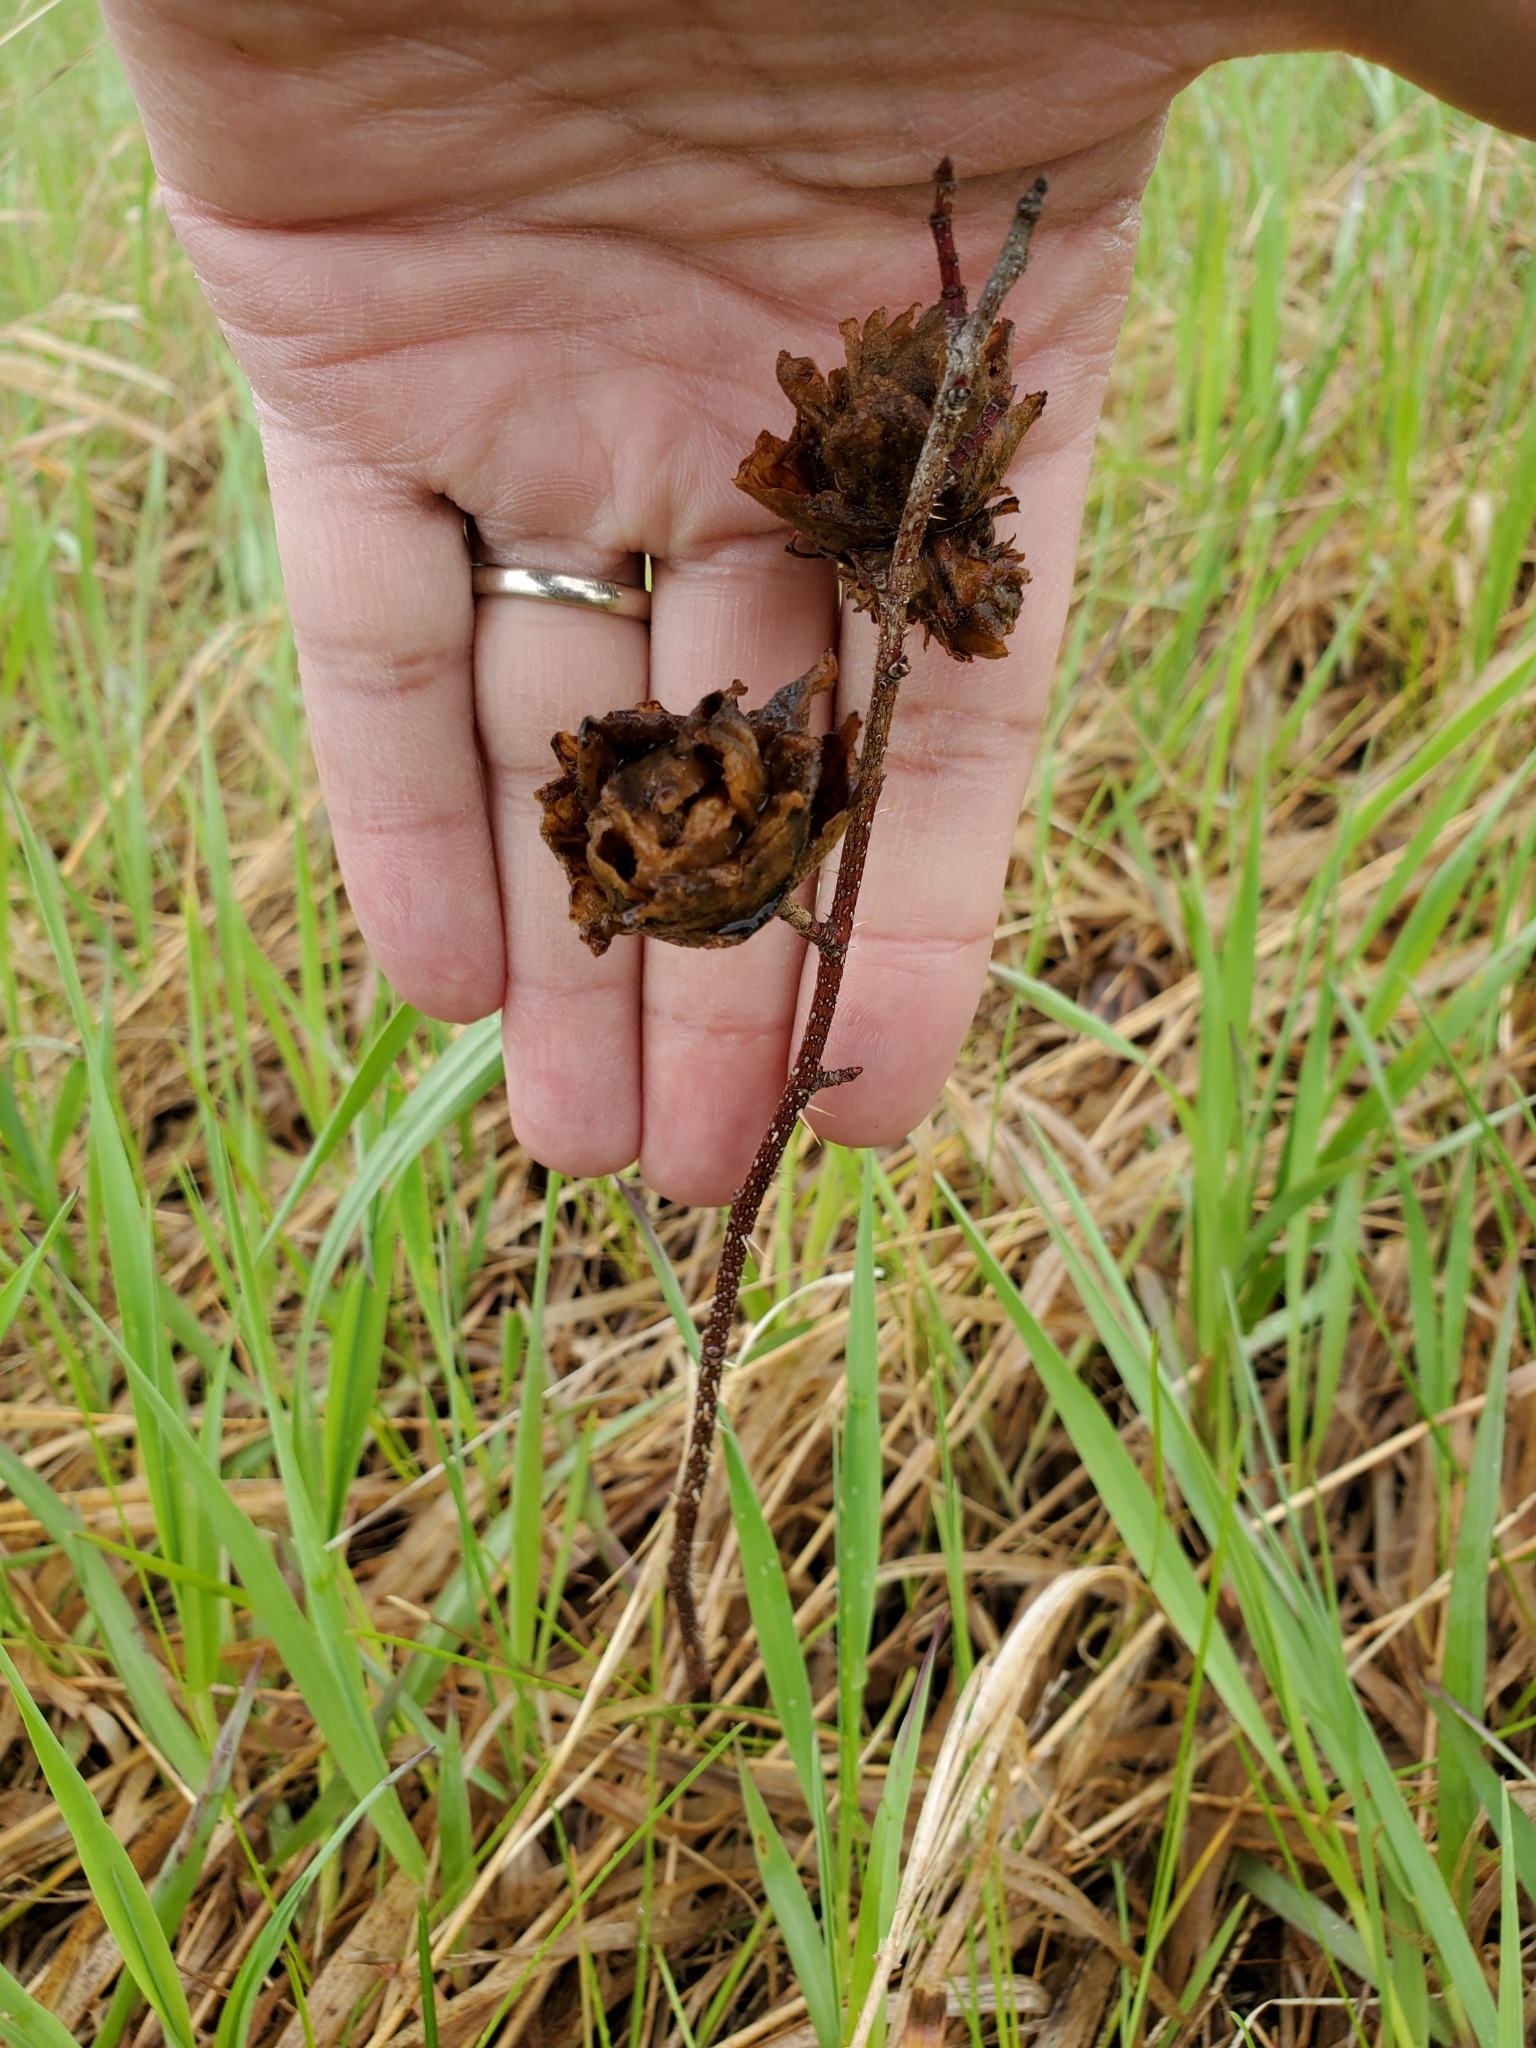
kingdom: Animalia
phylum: Arthropoda
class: Insecta
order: Diptera
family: Cecidomyiidae
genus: Rabdophaga
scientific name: Rabdophaga rosacea
